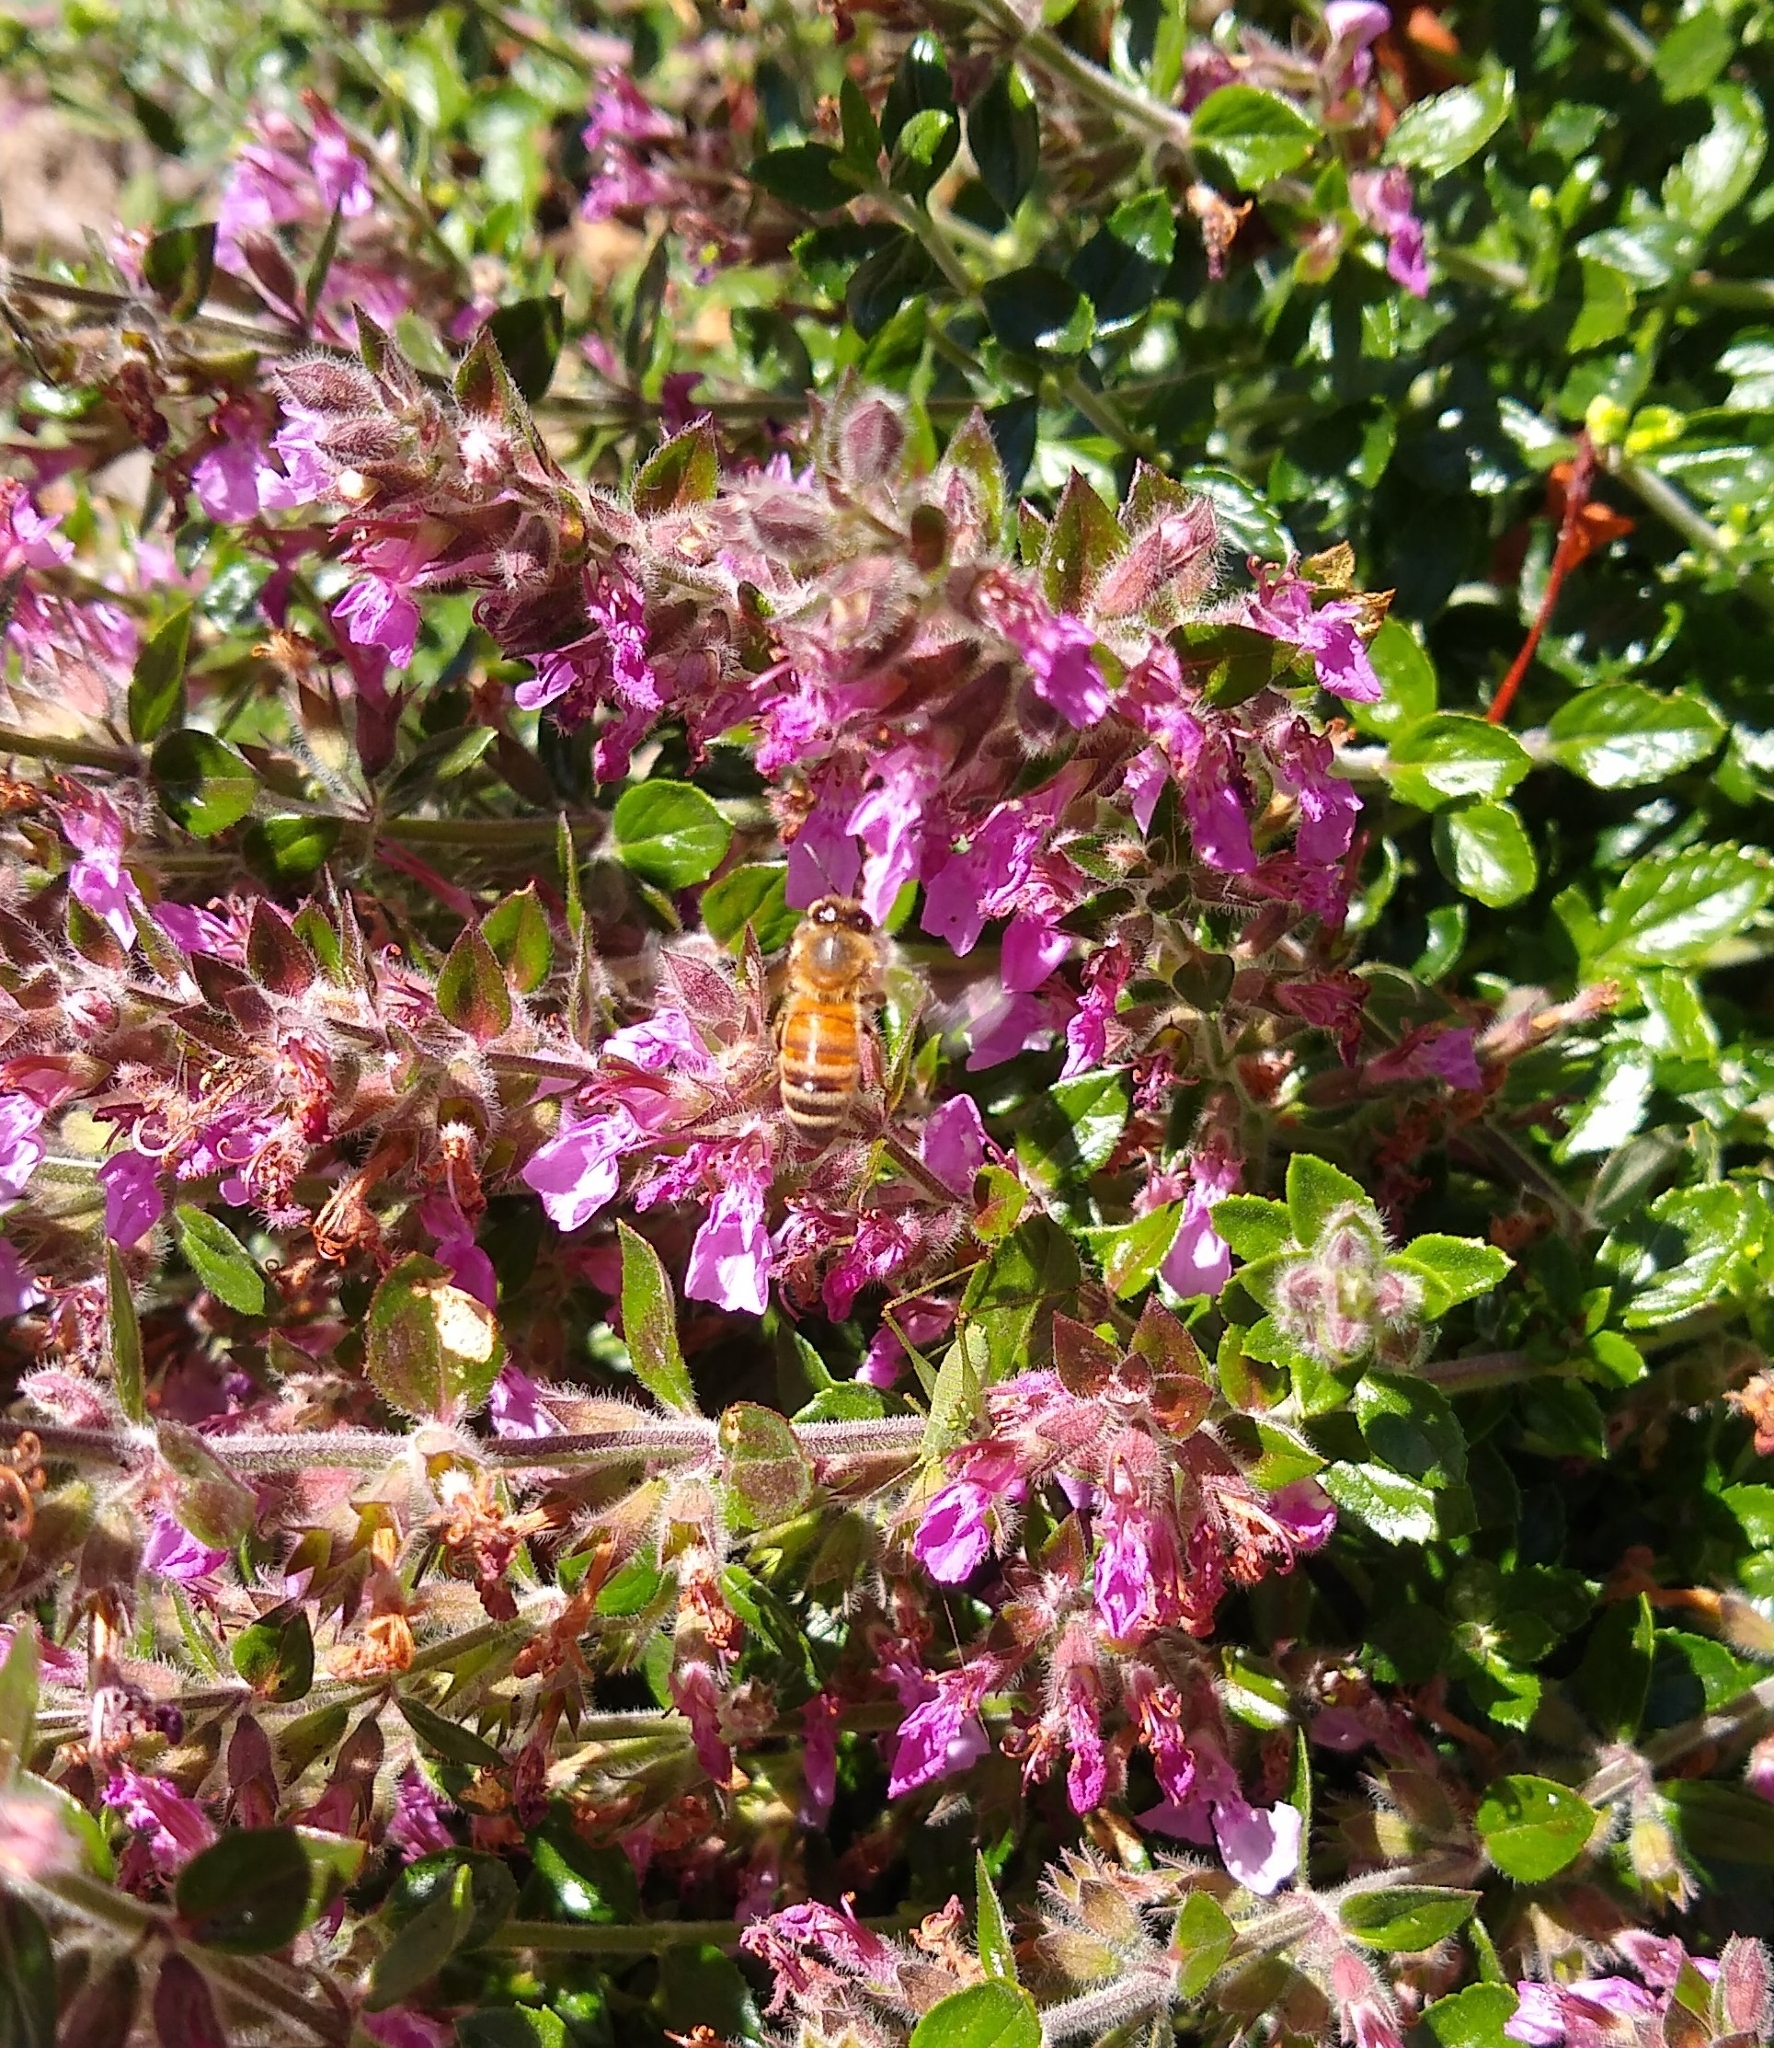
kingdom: Animalia
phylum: Arthropoda
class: Insecta
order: Hymenoptera
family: Apidae
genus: Apis
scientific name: Apis mellifera
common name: Honey bee
